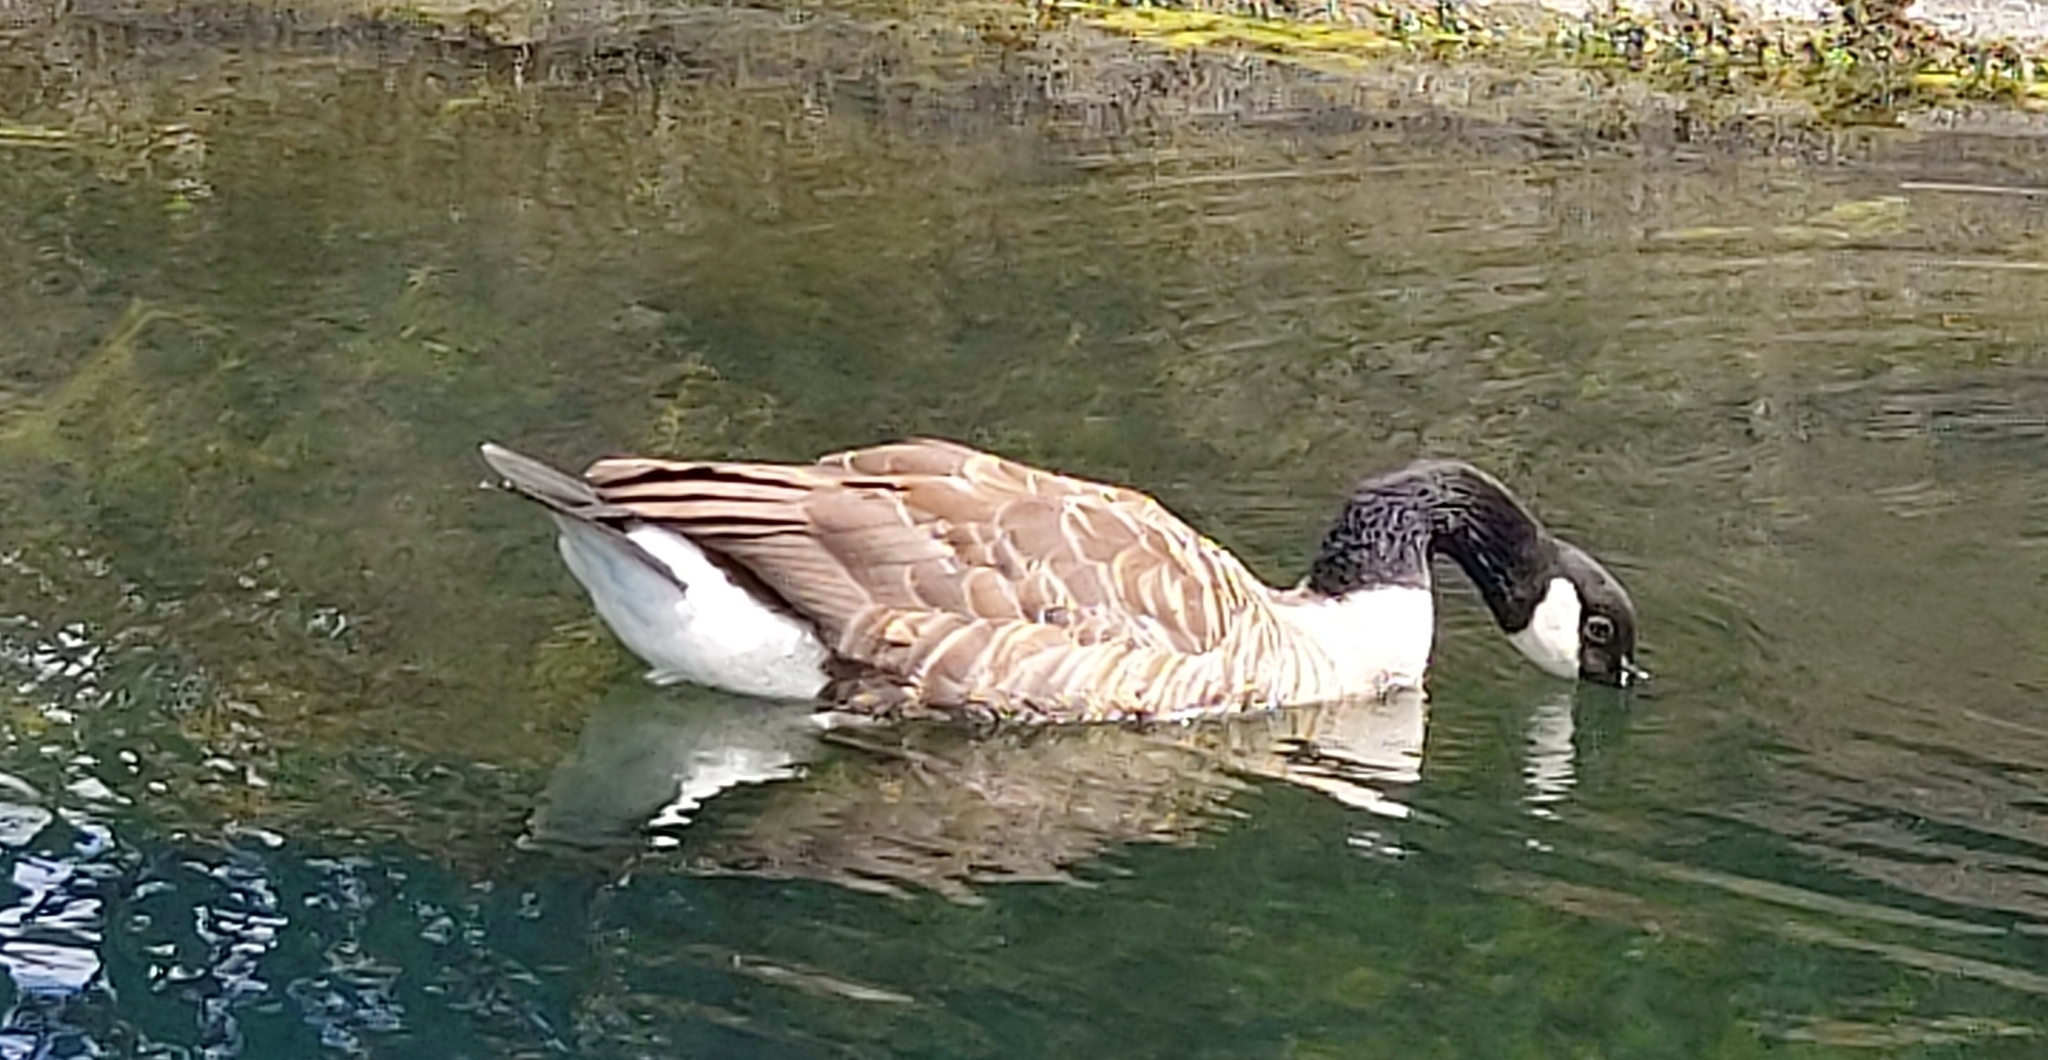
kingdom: Animalia
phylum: Chordata
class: Aves
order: Anseriformes
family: Anatidae
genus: Branta
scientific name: Branta canadensis
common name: Canada goose
